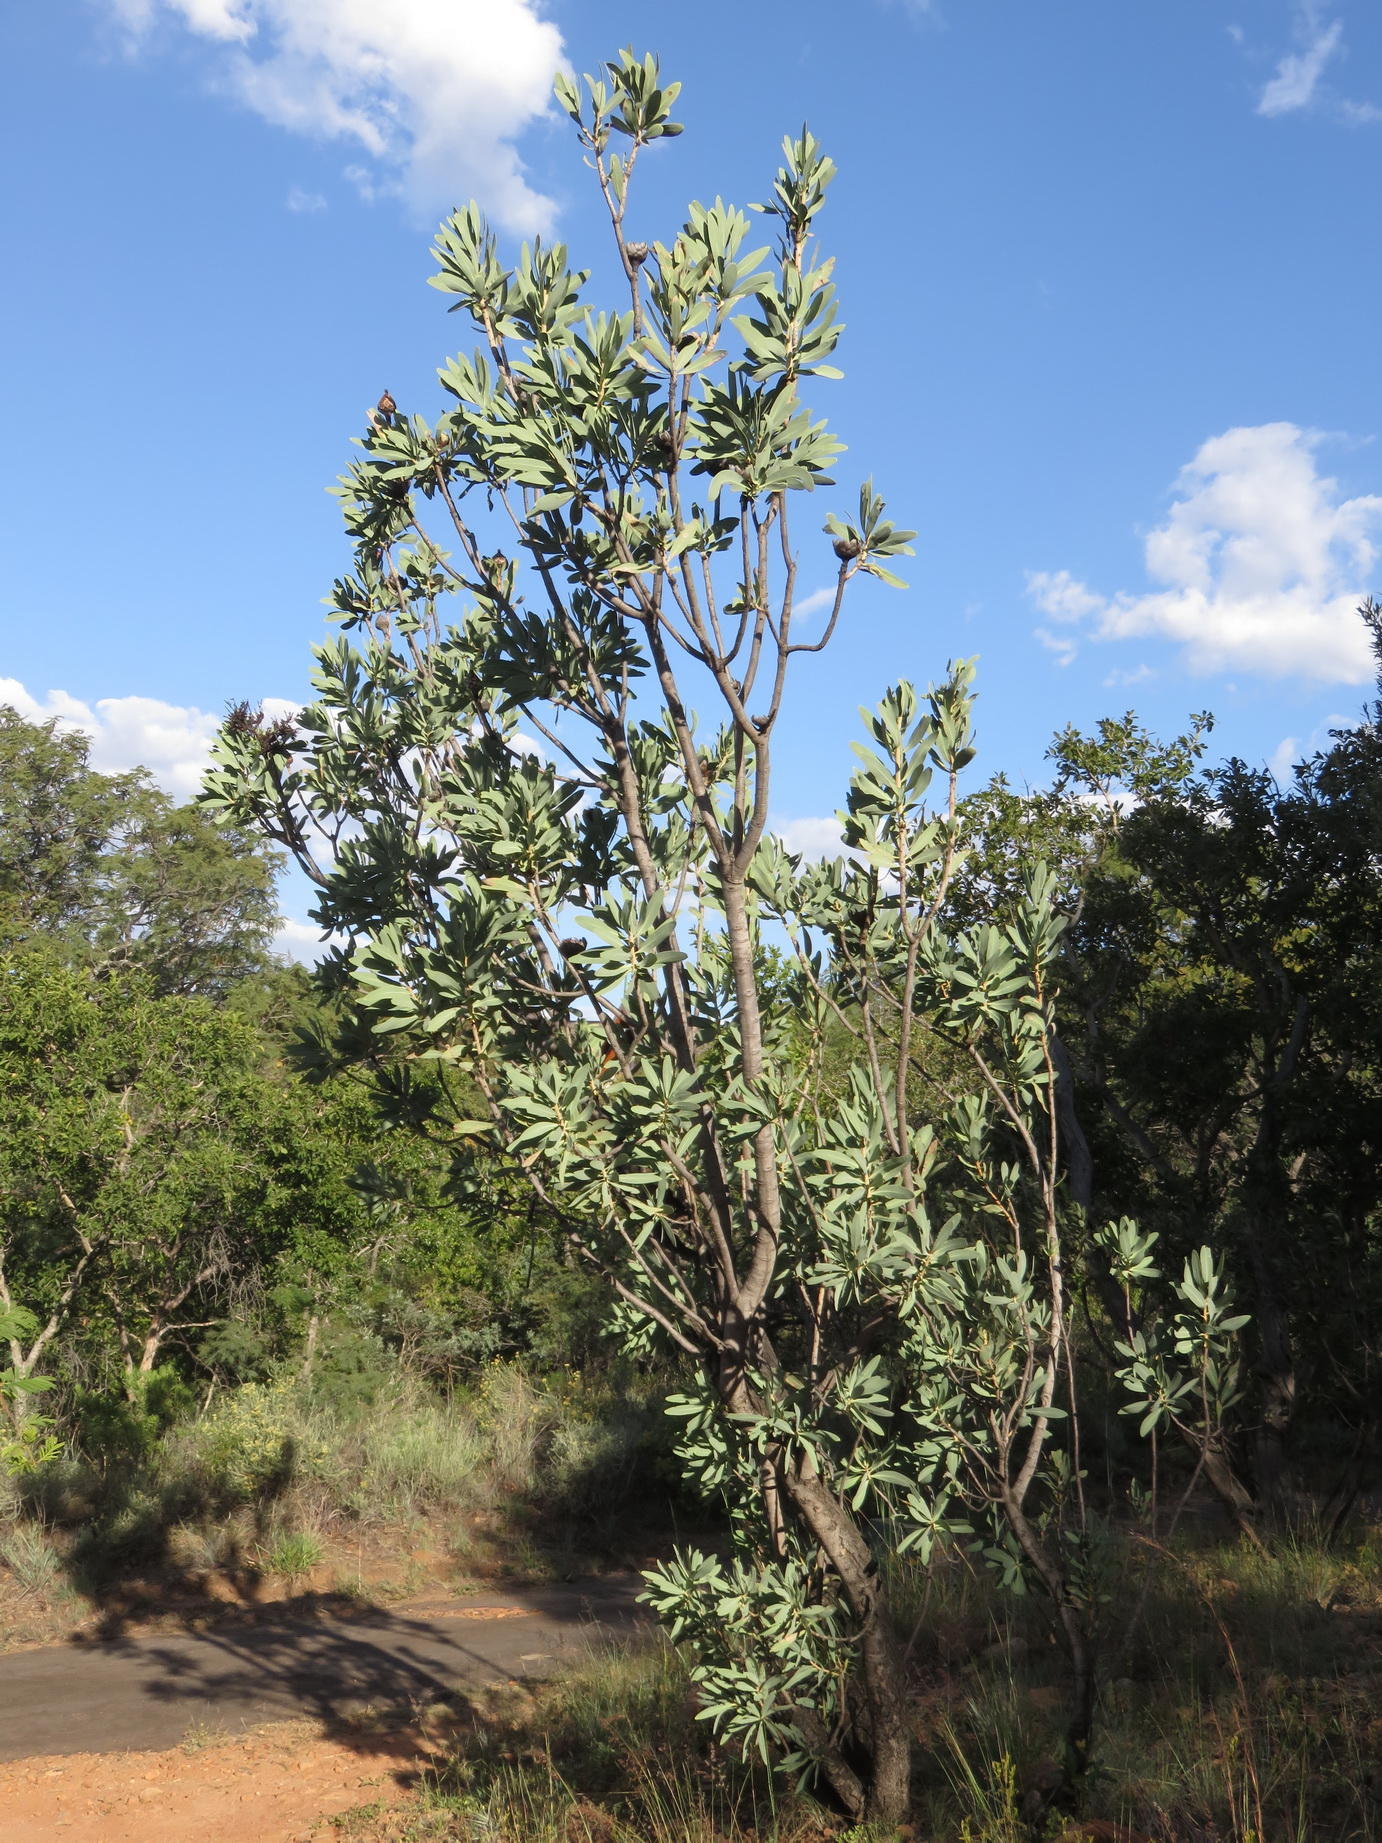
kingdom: Plantae
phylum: Tracheophyta
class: Magnoliopsida
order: Proteales
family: Proteaceae
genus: Protea
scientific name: Protea caffra
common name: Common sugarbush
